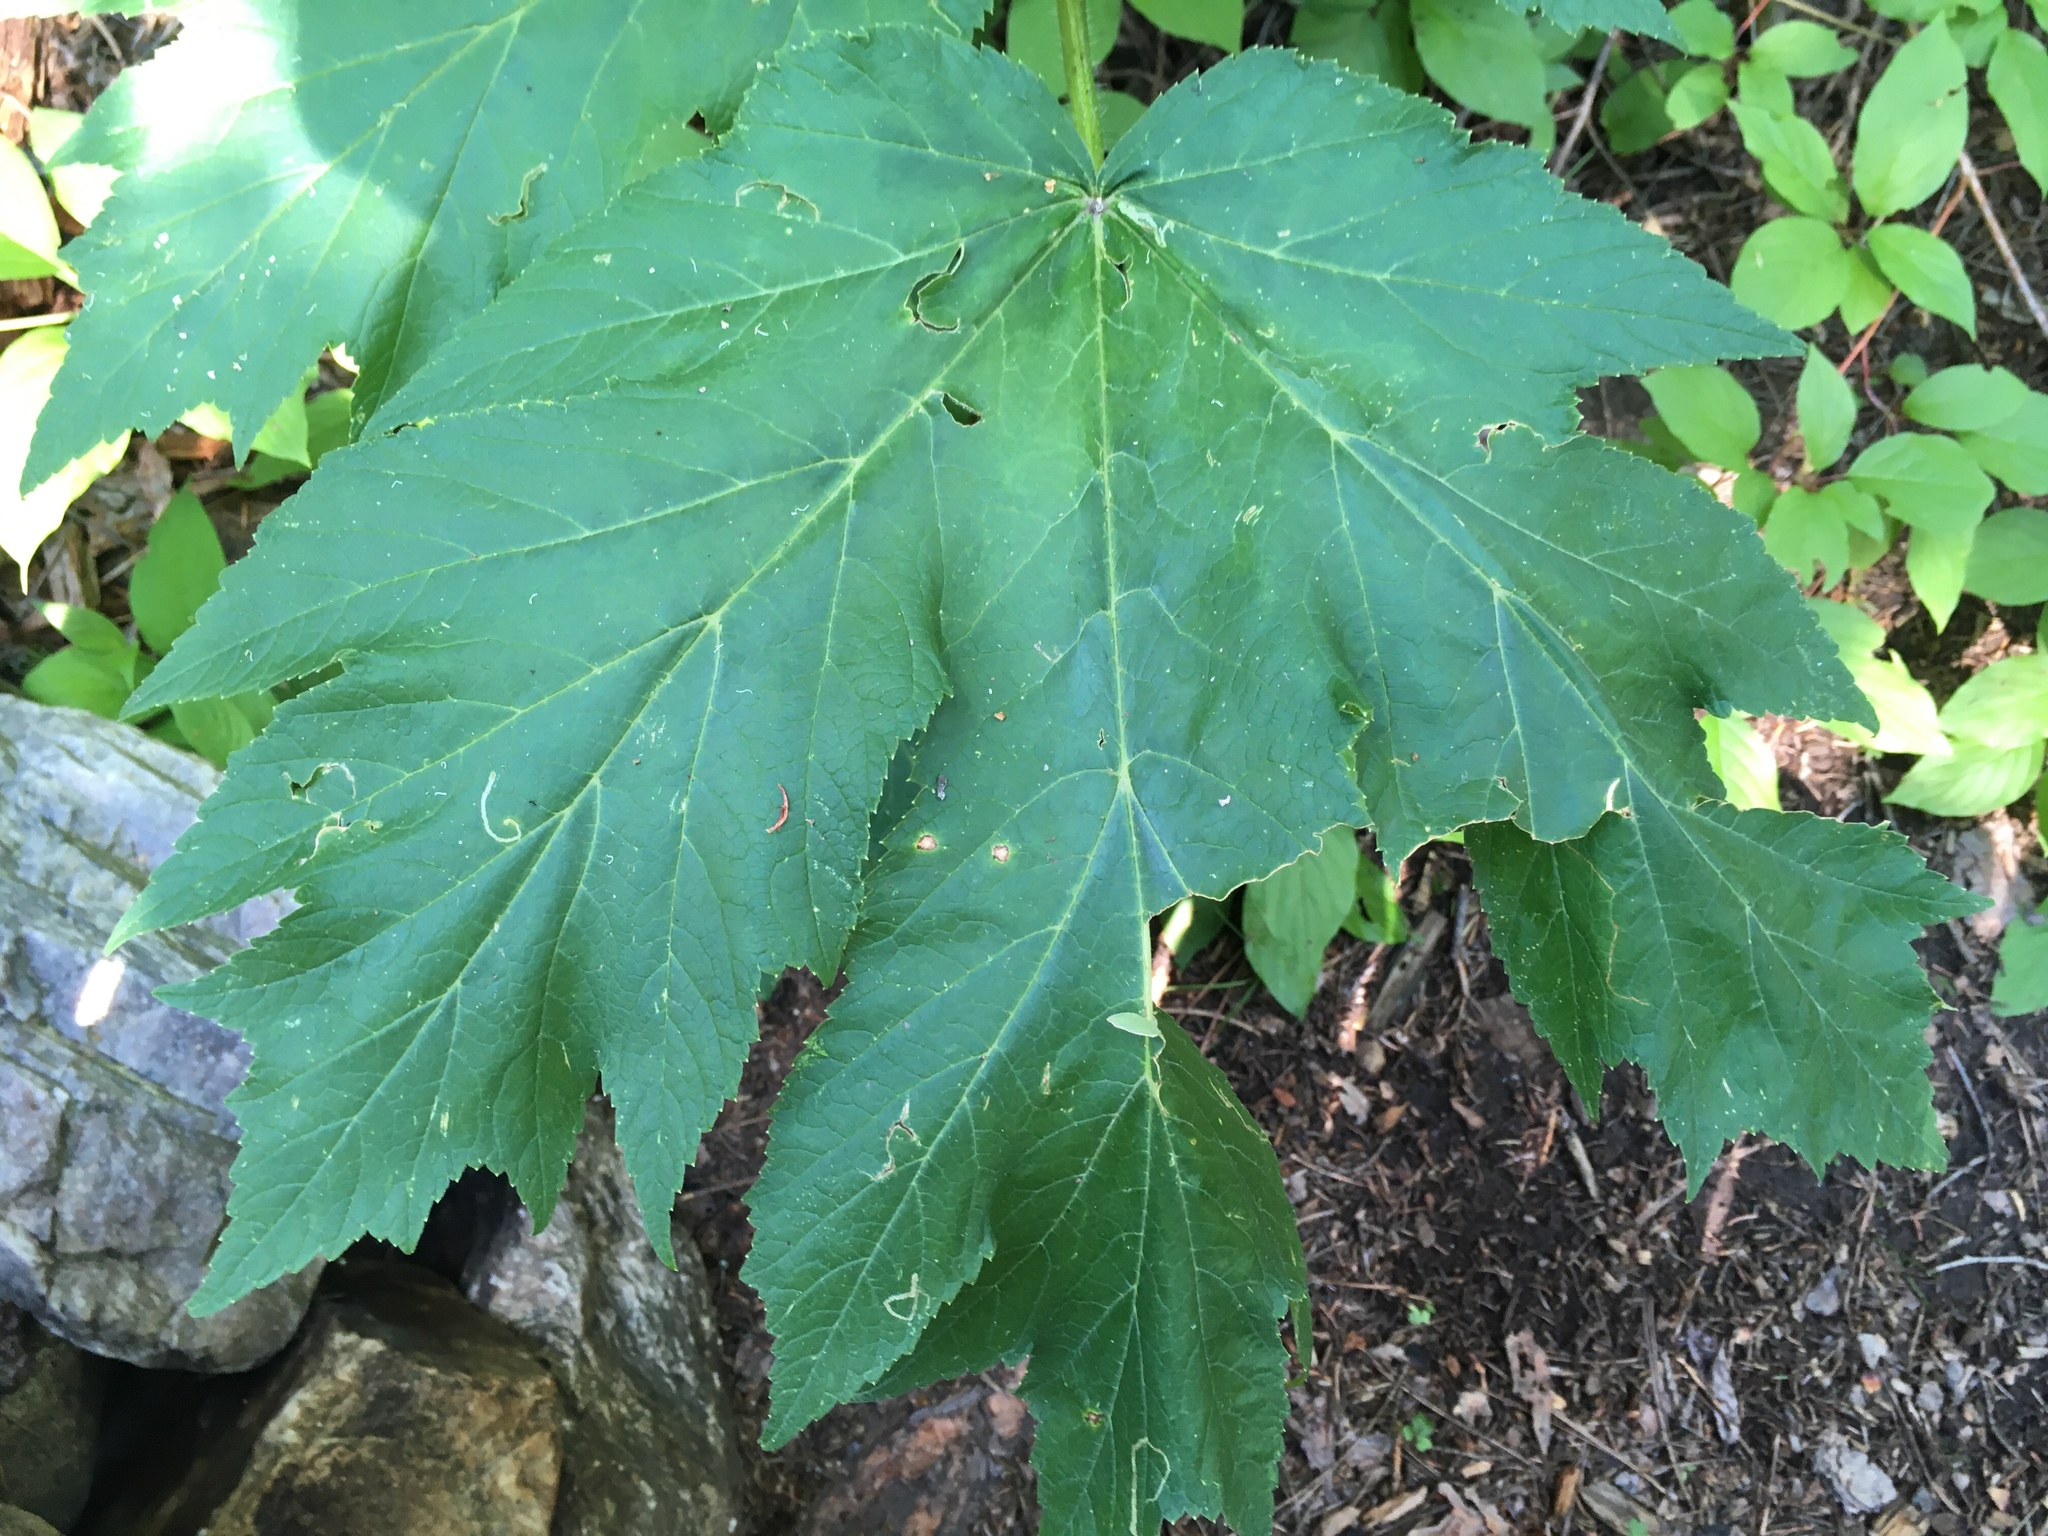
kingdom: Plantae
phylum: Tracheophyta
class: Magnoliopsida
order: Apiales
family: Apiaceae
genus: Heracleum
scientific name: Heracleum maximum
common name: American cow parsnip
